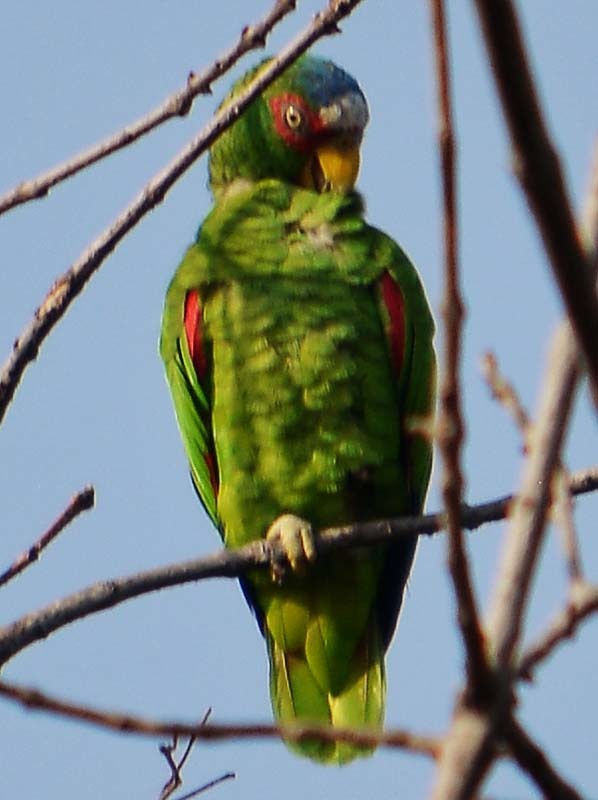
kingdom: Animalia
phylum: Chordata
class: Aves
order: Psittaciformes
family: Psittacidae
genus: Amazona
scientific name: Amazona albifrons
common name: White-fronted amazon
